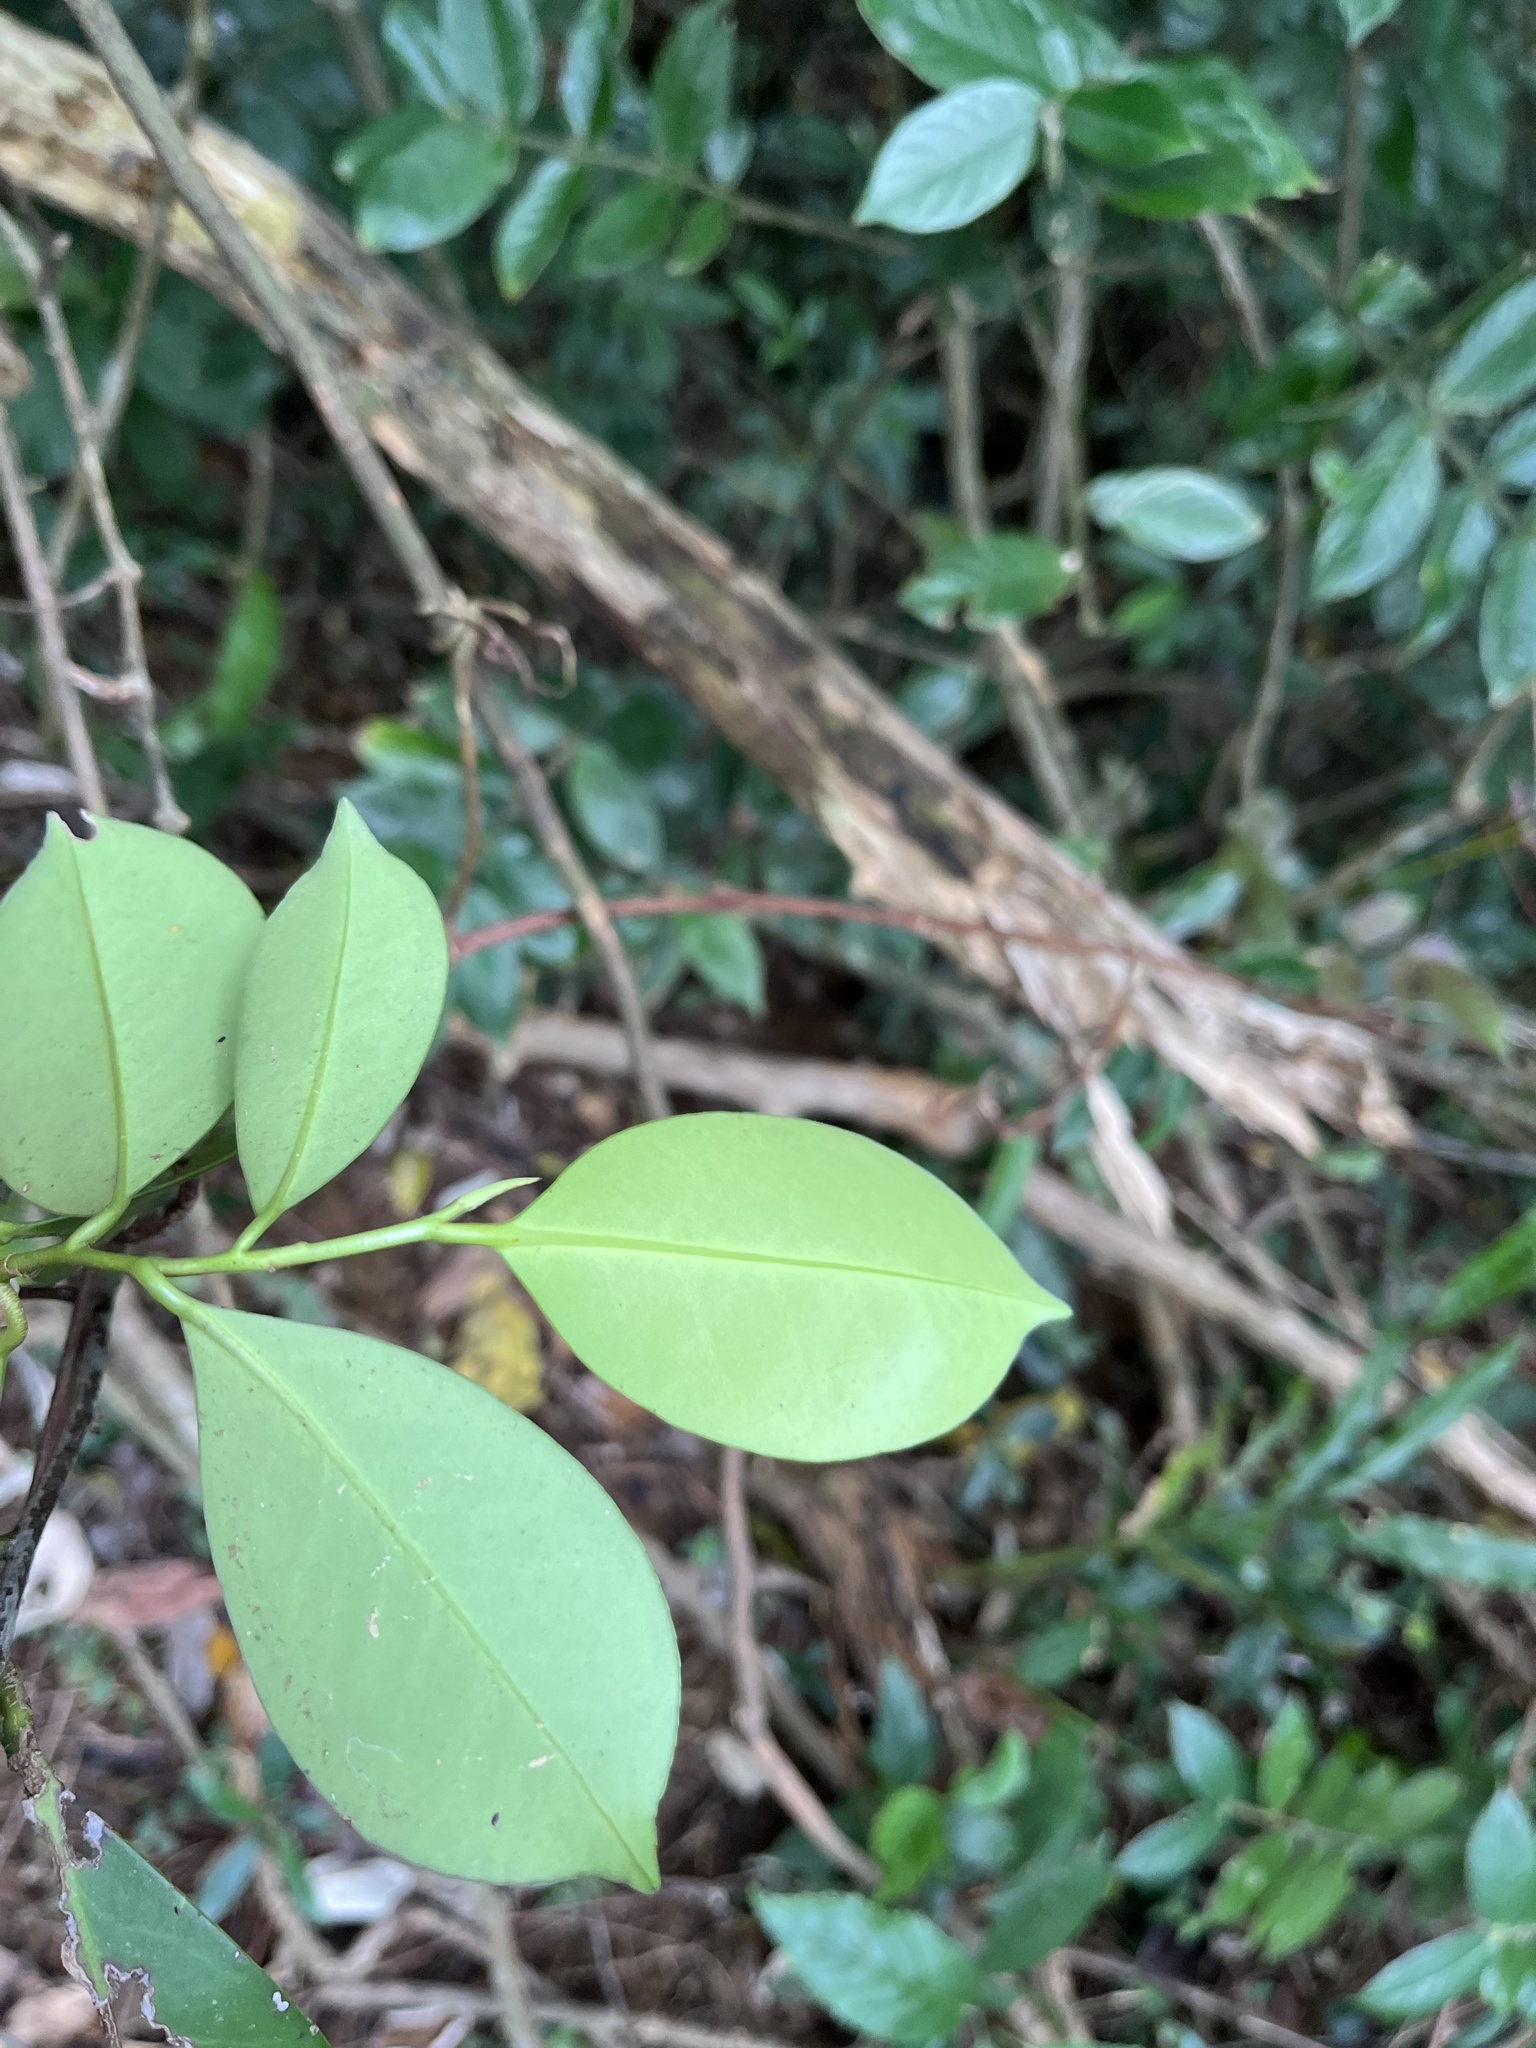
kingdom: Plantae
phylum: Tracheophyta
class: Magnoliopsida
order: Ericales
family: Pentaphylacaceae
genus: Cleyera
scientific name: Cleyera japonica
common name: Sakaki
